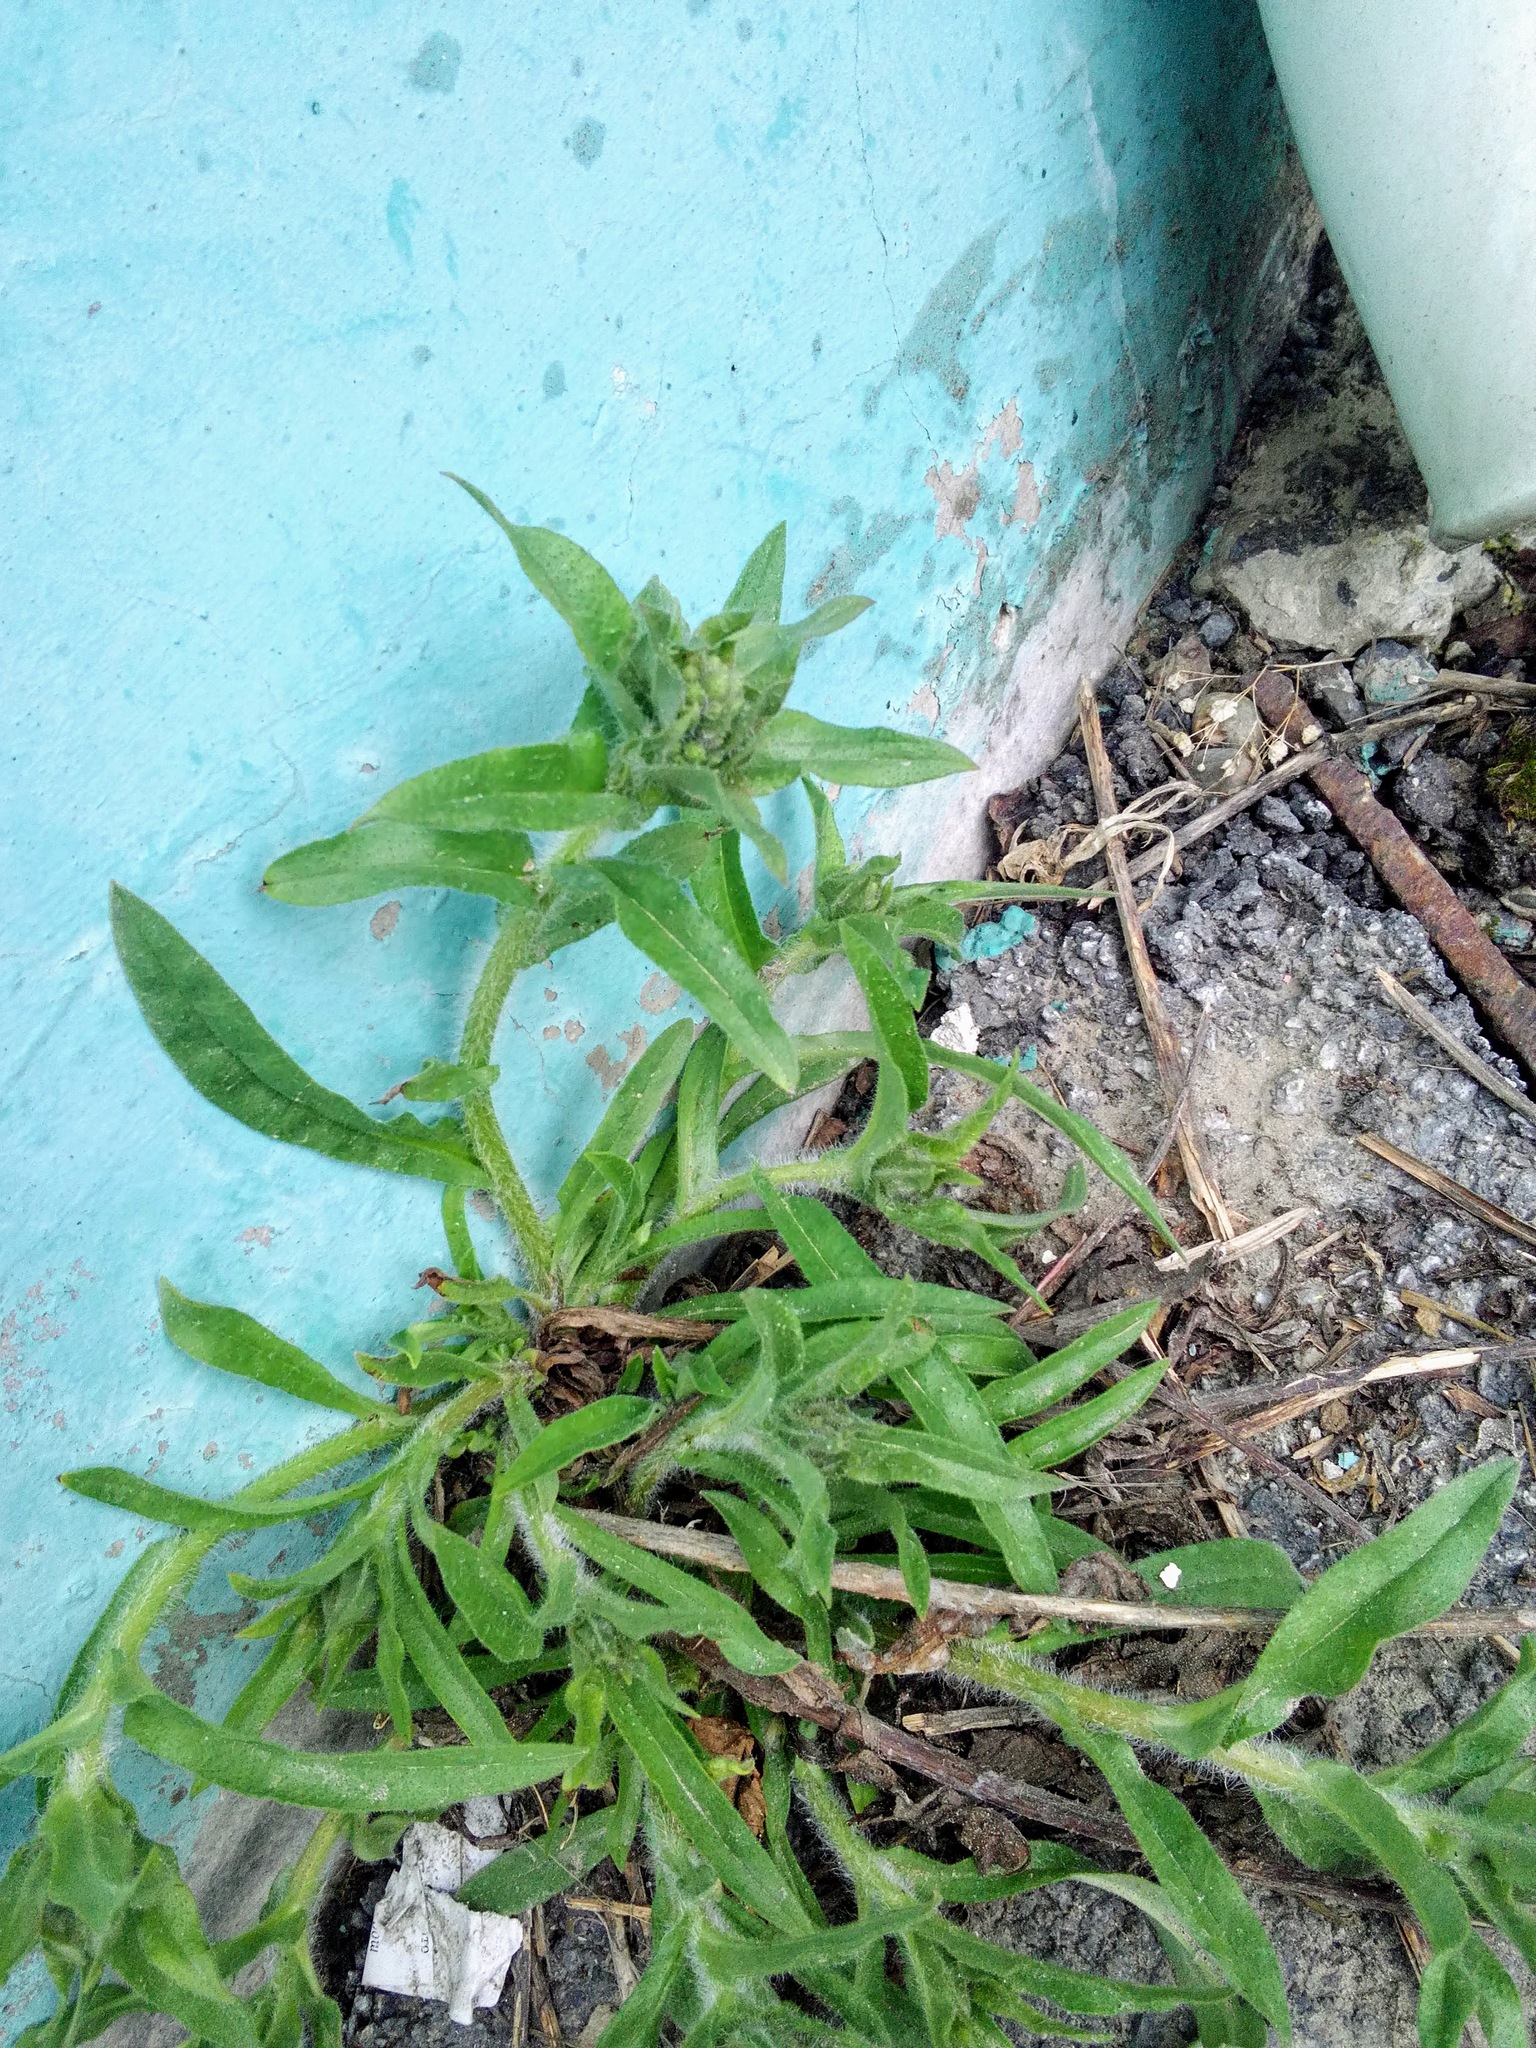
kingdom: Plantae
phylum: Tracheophyta
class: Magnoliopsida
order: Boraginales
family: Boraginaceae
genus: Nonea
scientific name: Nonea pulla
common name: Brown nonea
